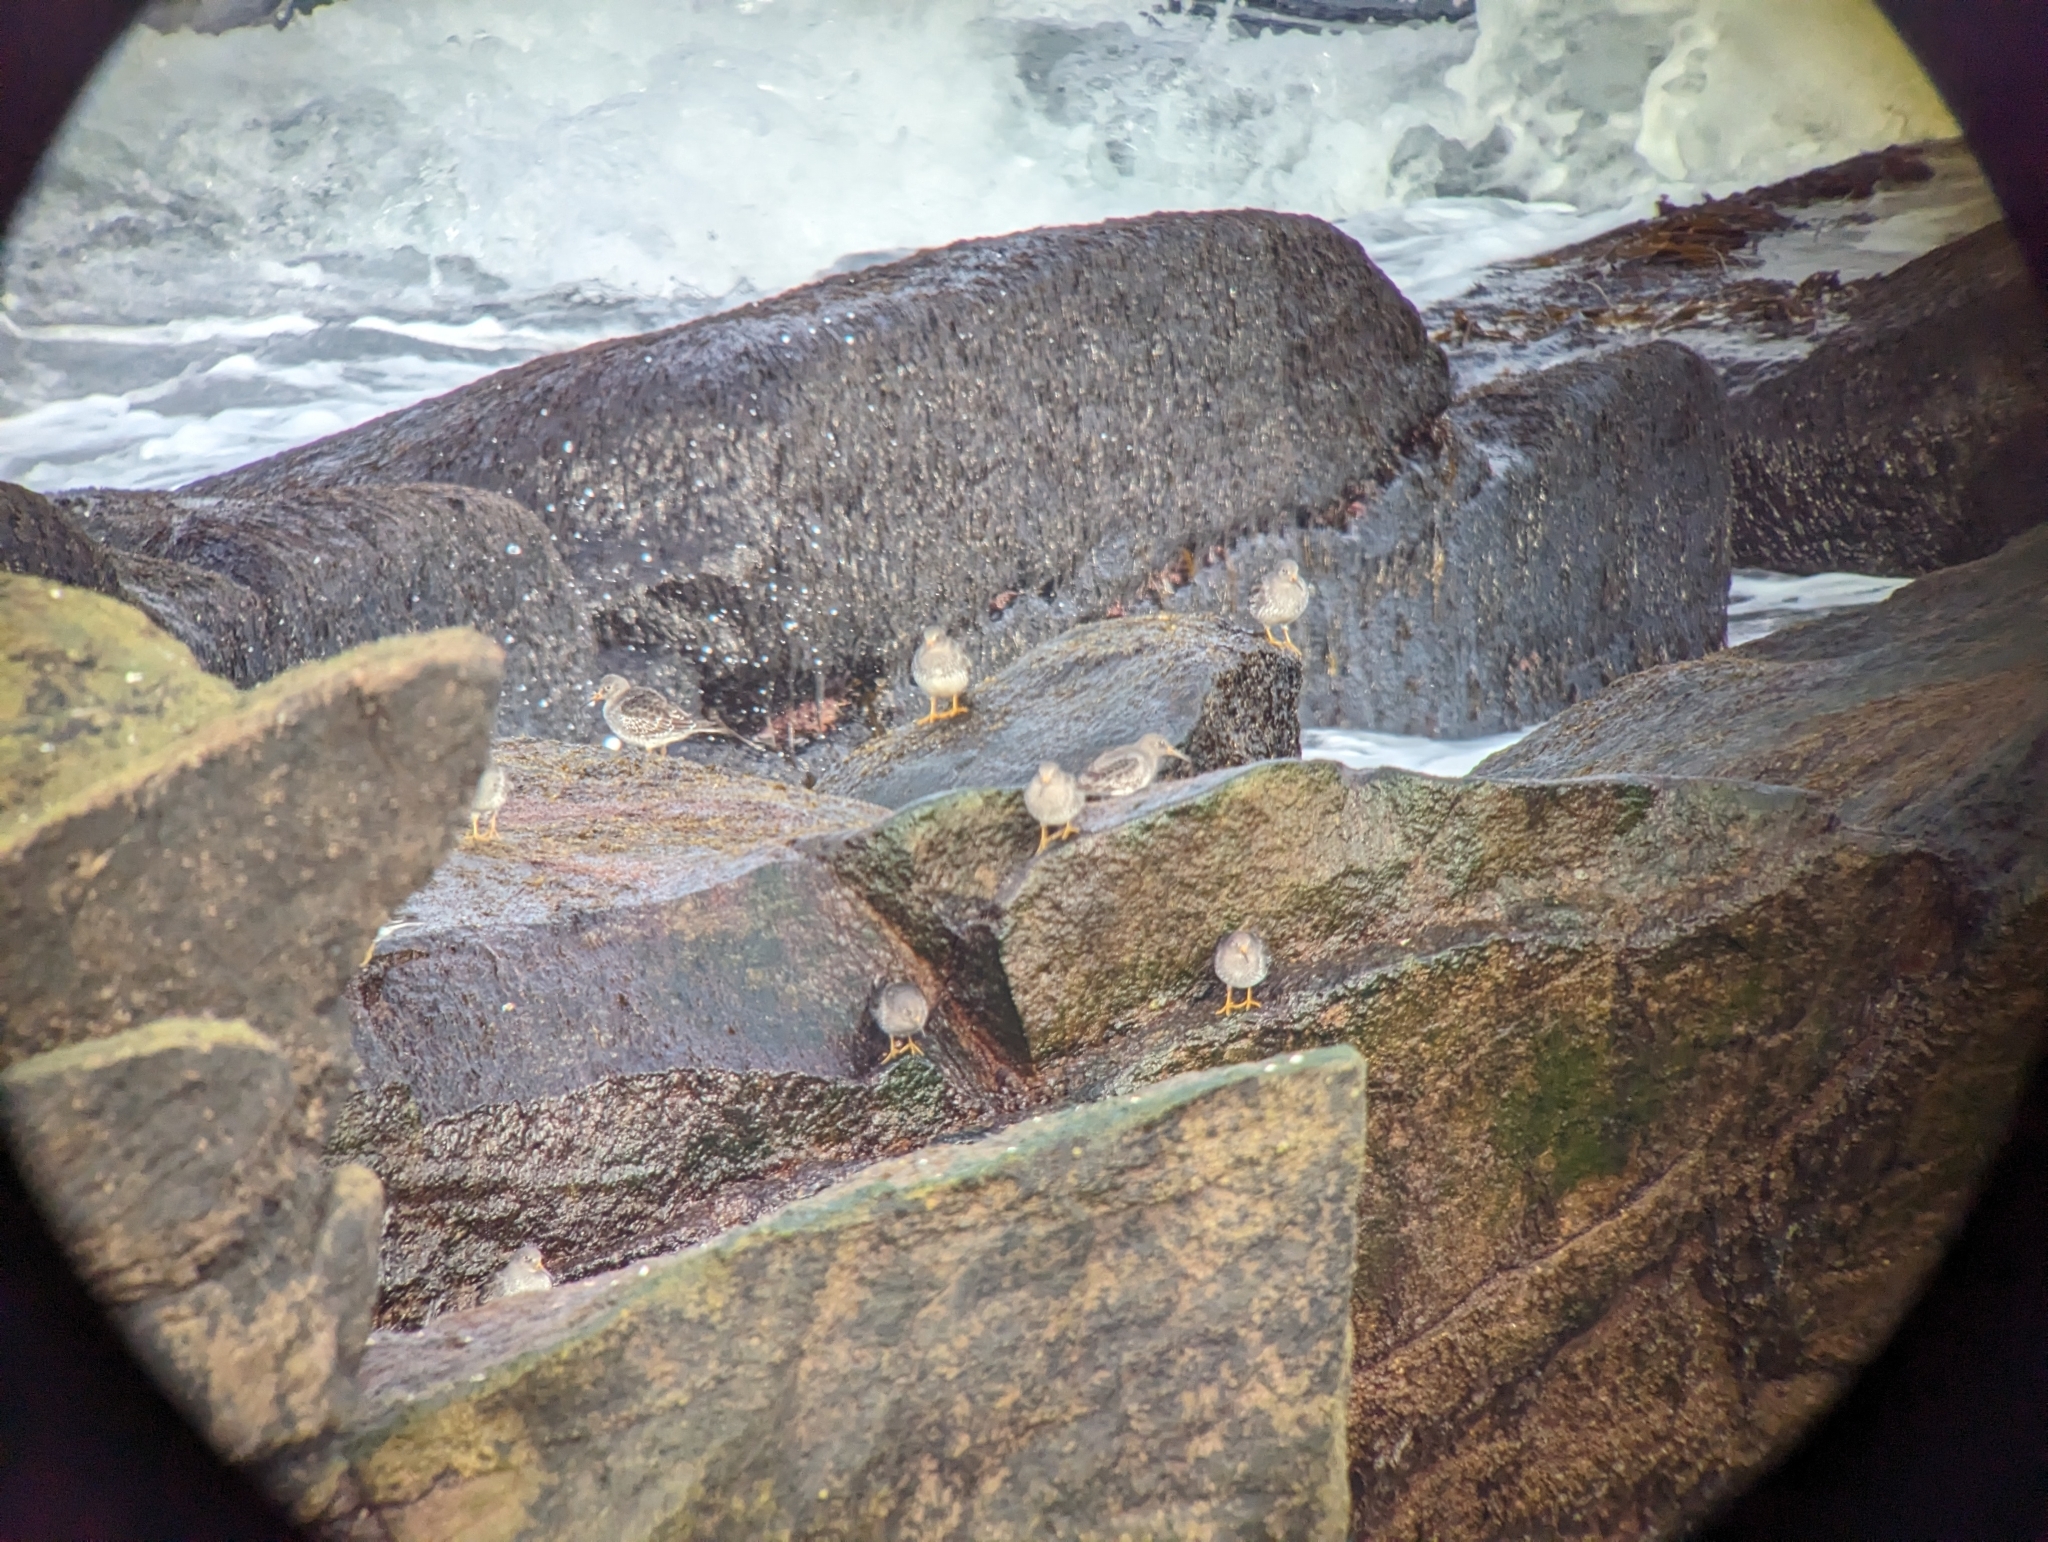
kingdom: Animalia
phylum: Chordata
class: Aves
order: Charadriiformes
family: Scolopacidae
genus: Calidris
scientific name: Calidris maritima
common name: Purple sandpiper
